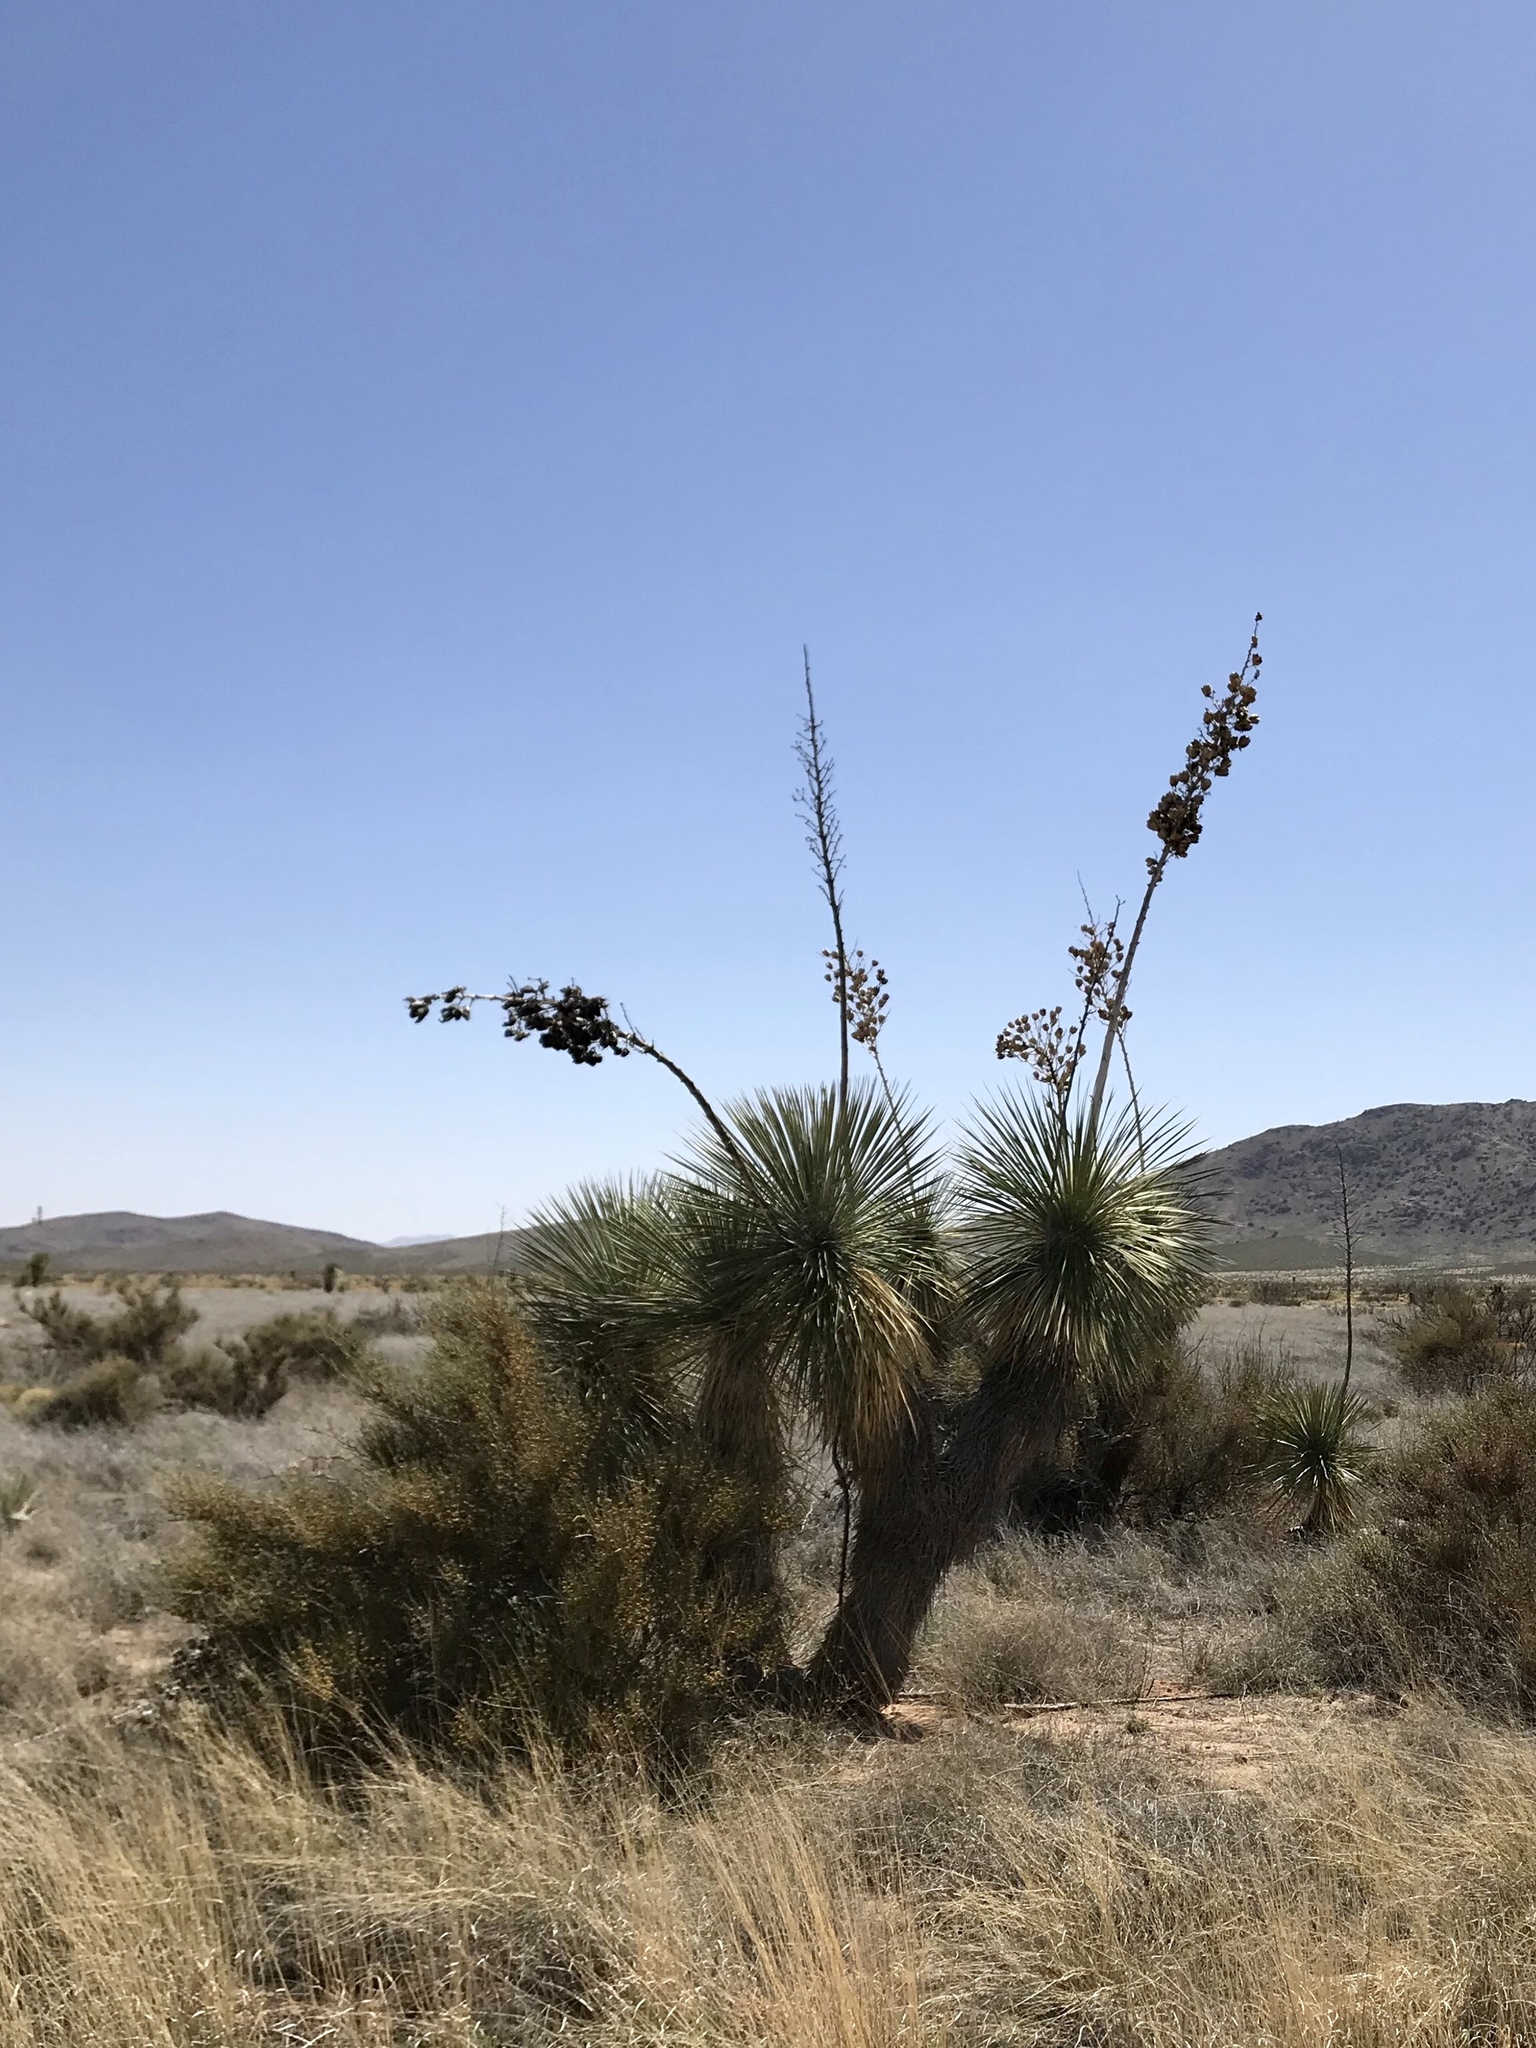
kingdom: Plantae
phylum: Tracheophyta
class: Liliopsida
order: Asparagales
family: Asparagaceae
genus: Yucca
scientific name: Yucca elata
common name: Palmella
